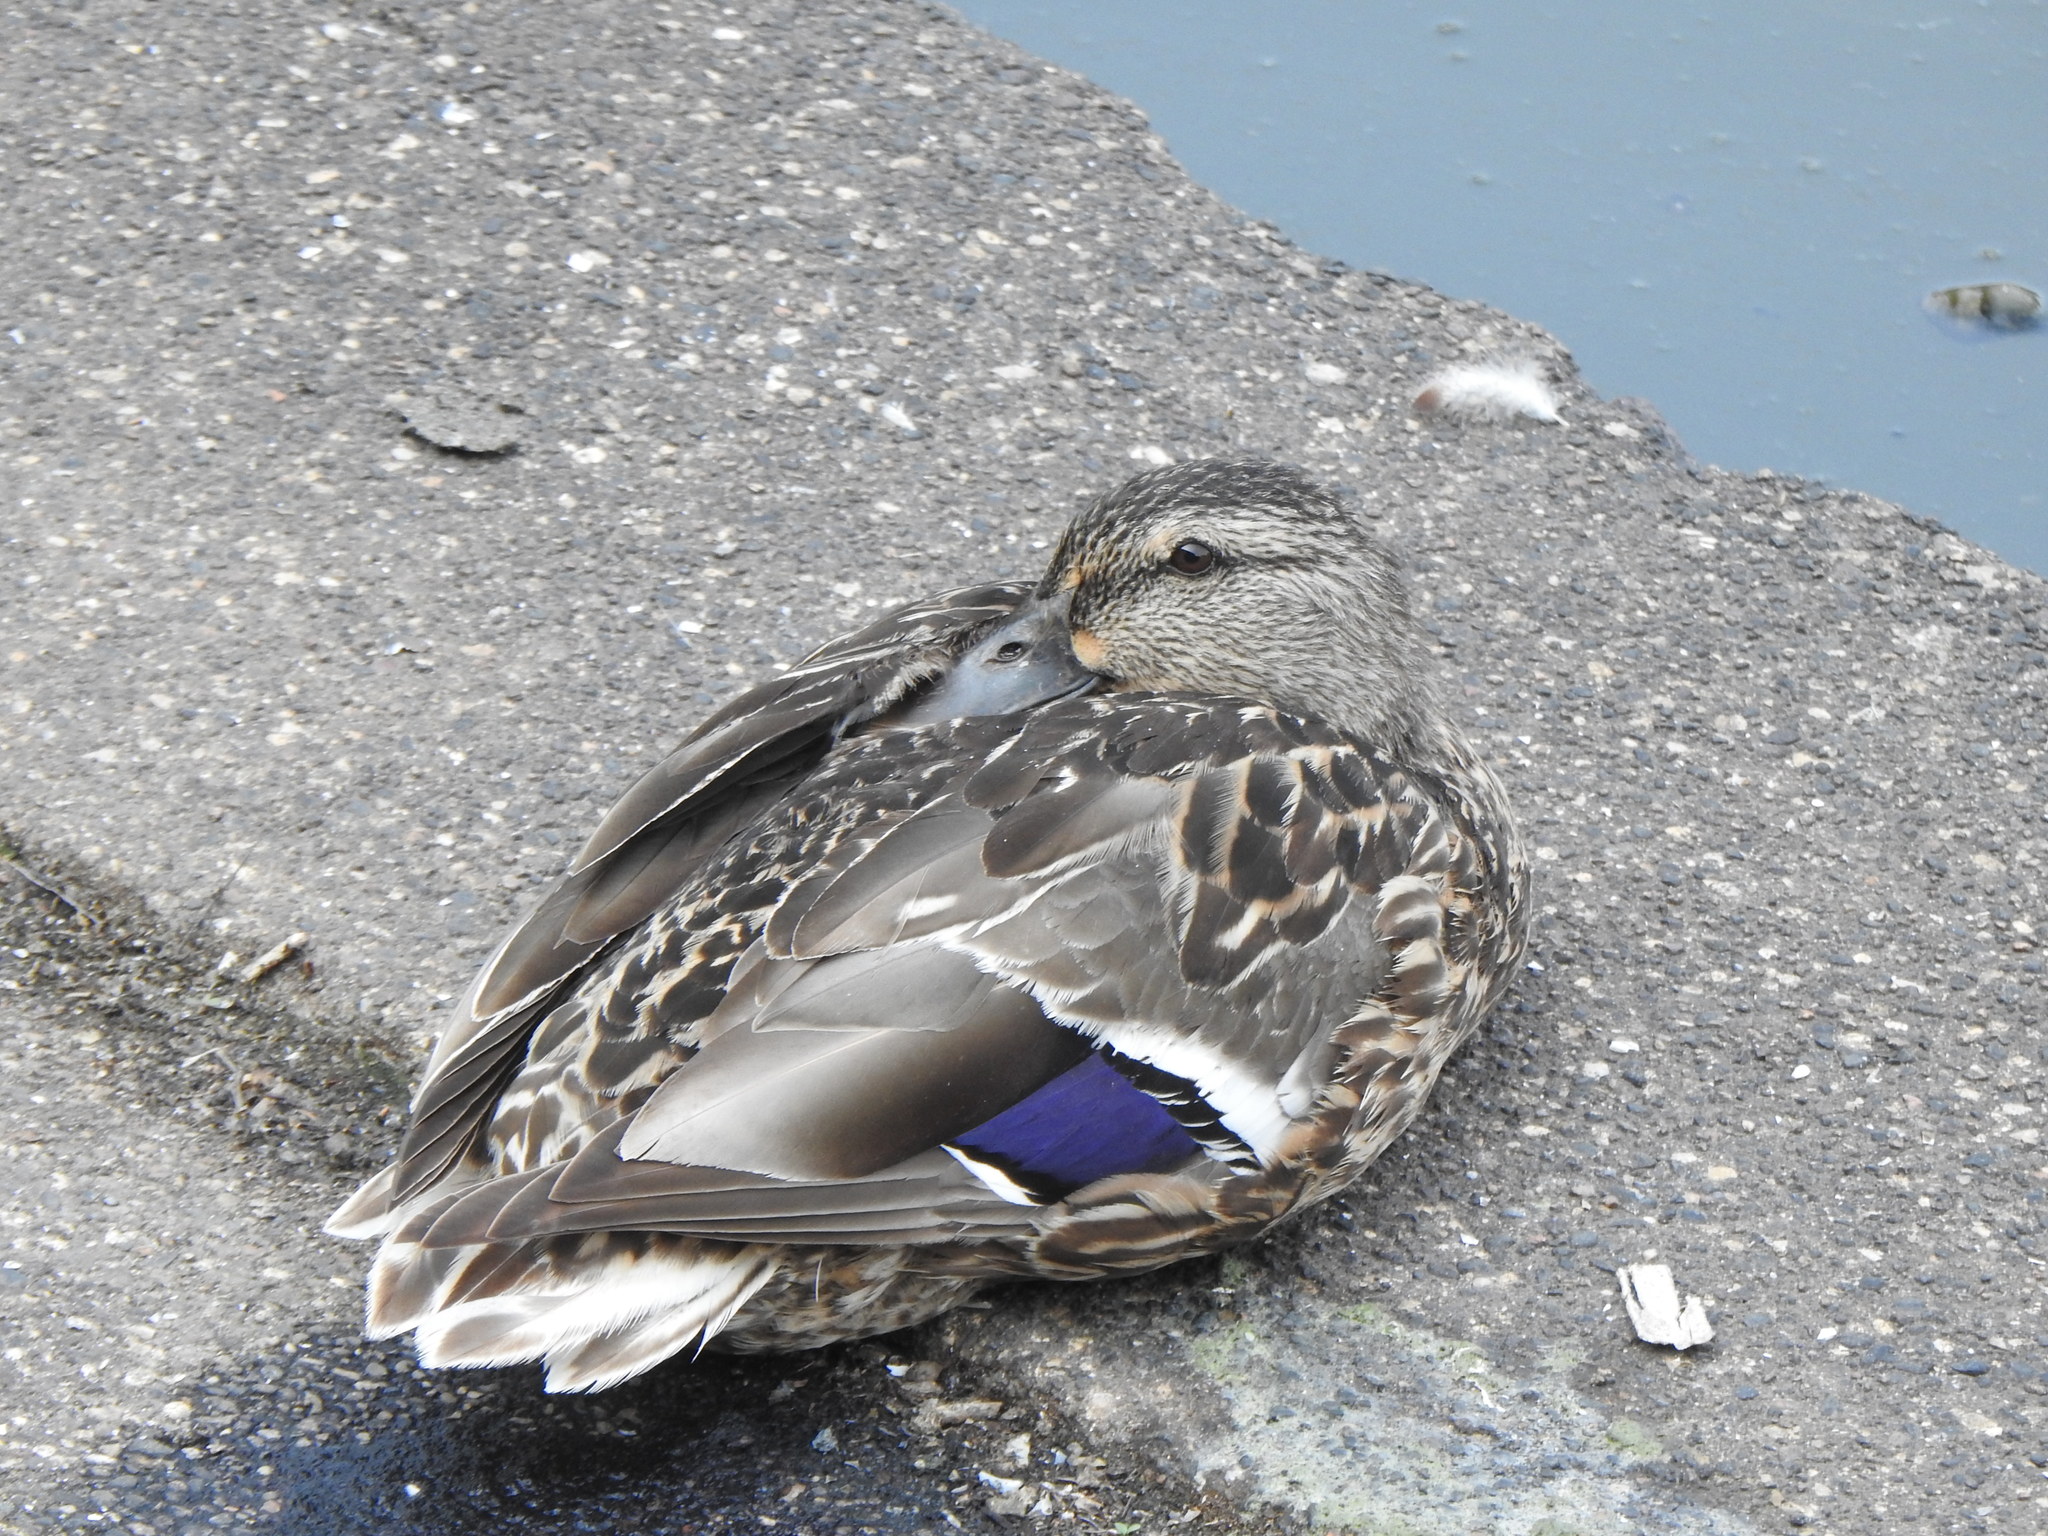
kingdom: Animalia
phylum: Chordata
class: Aves
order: Anseriformes
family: Anatidae
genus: Anas
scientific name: Anas platyrhynchos
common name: Mallard
